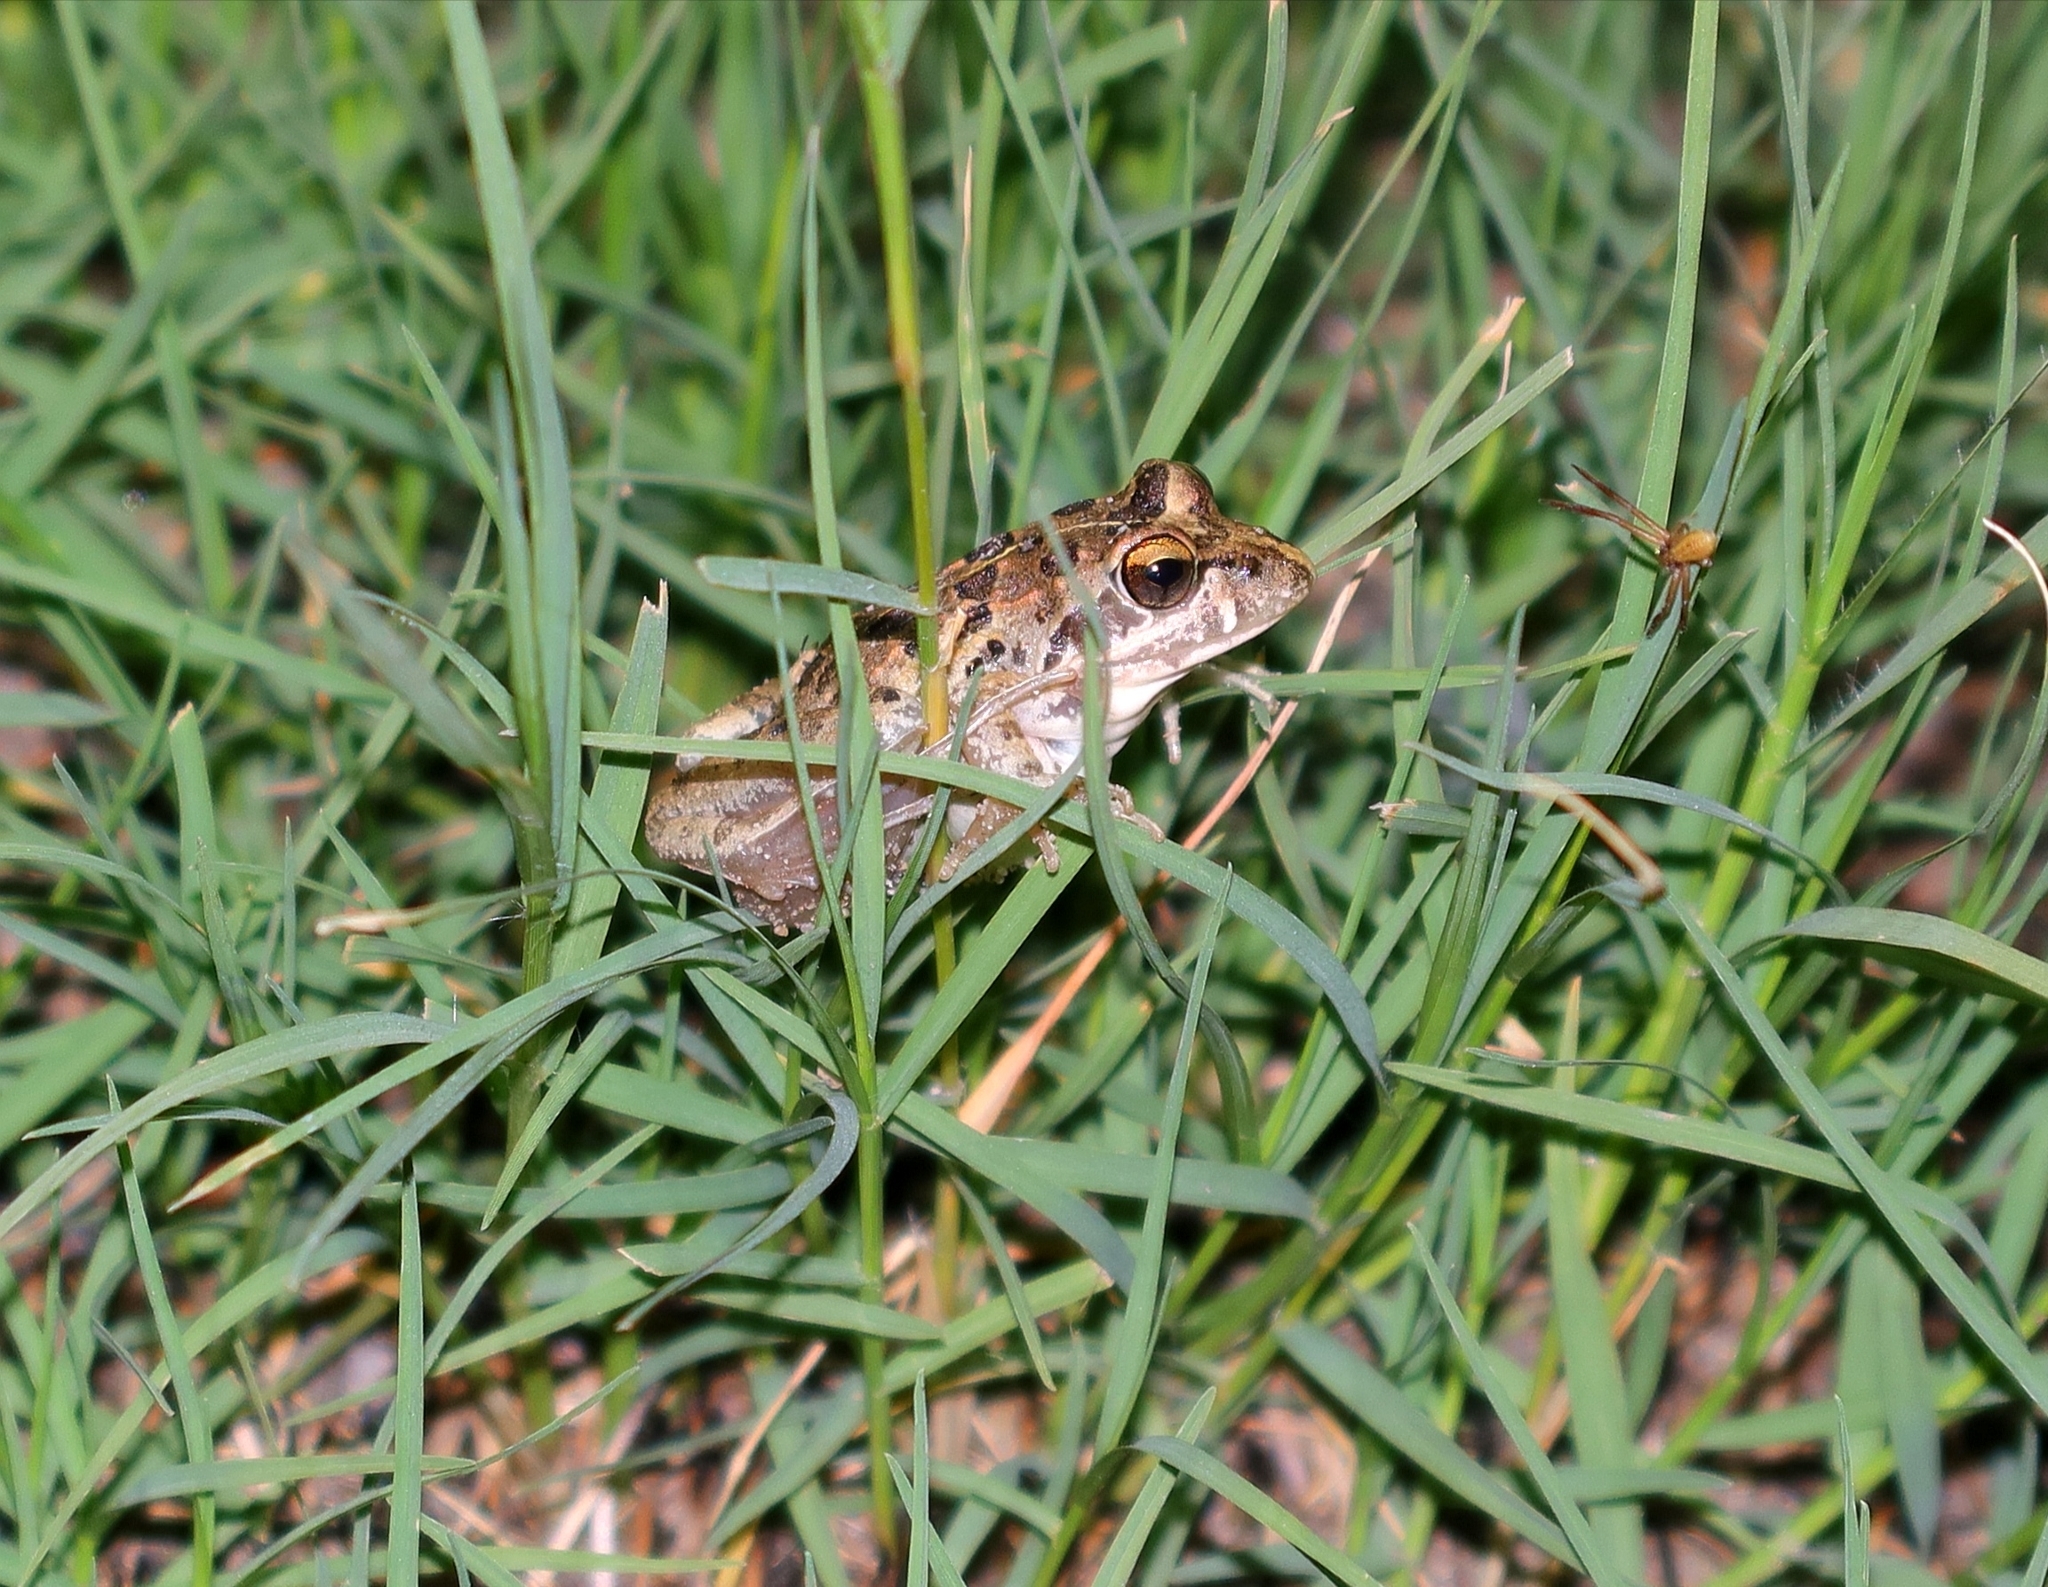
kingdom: Animalia
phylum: Chordata
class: Amphibia
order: Anura
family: Pyxicephalidae
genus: Strongylopus
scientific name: Strongylopus grayii
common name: Gray's stream frog
